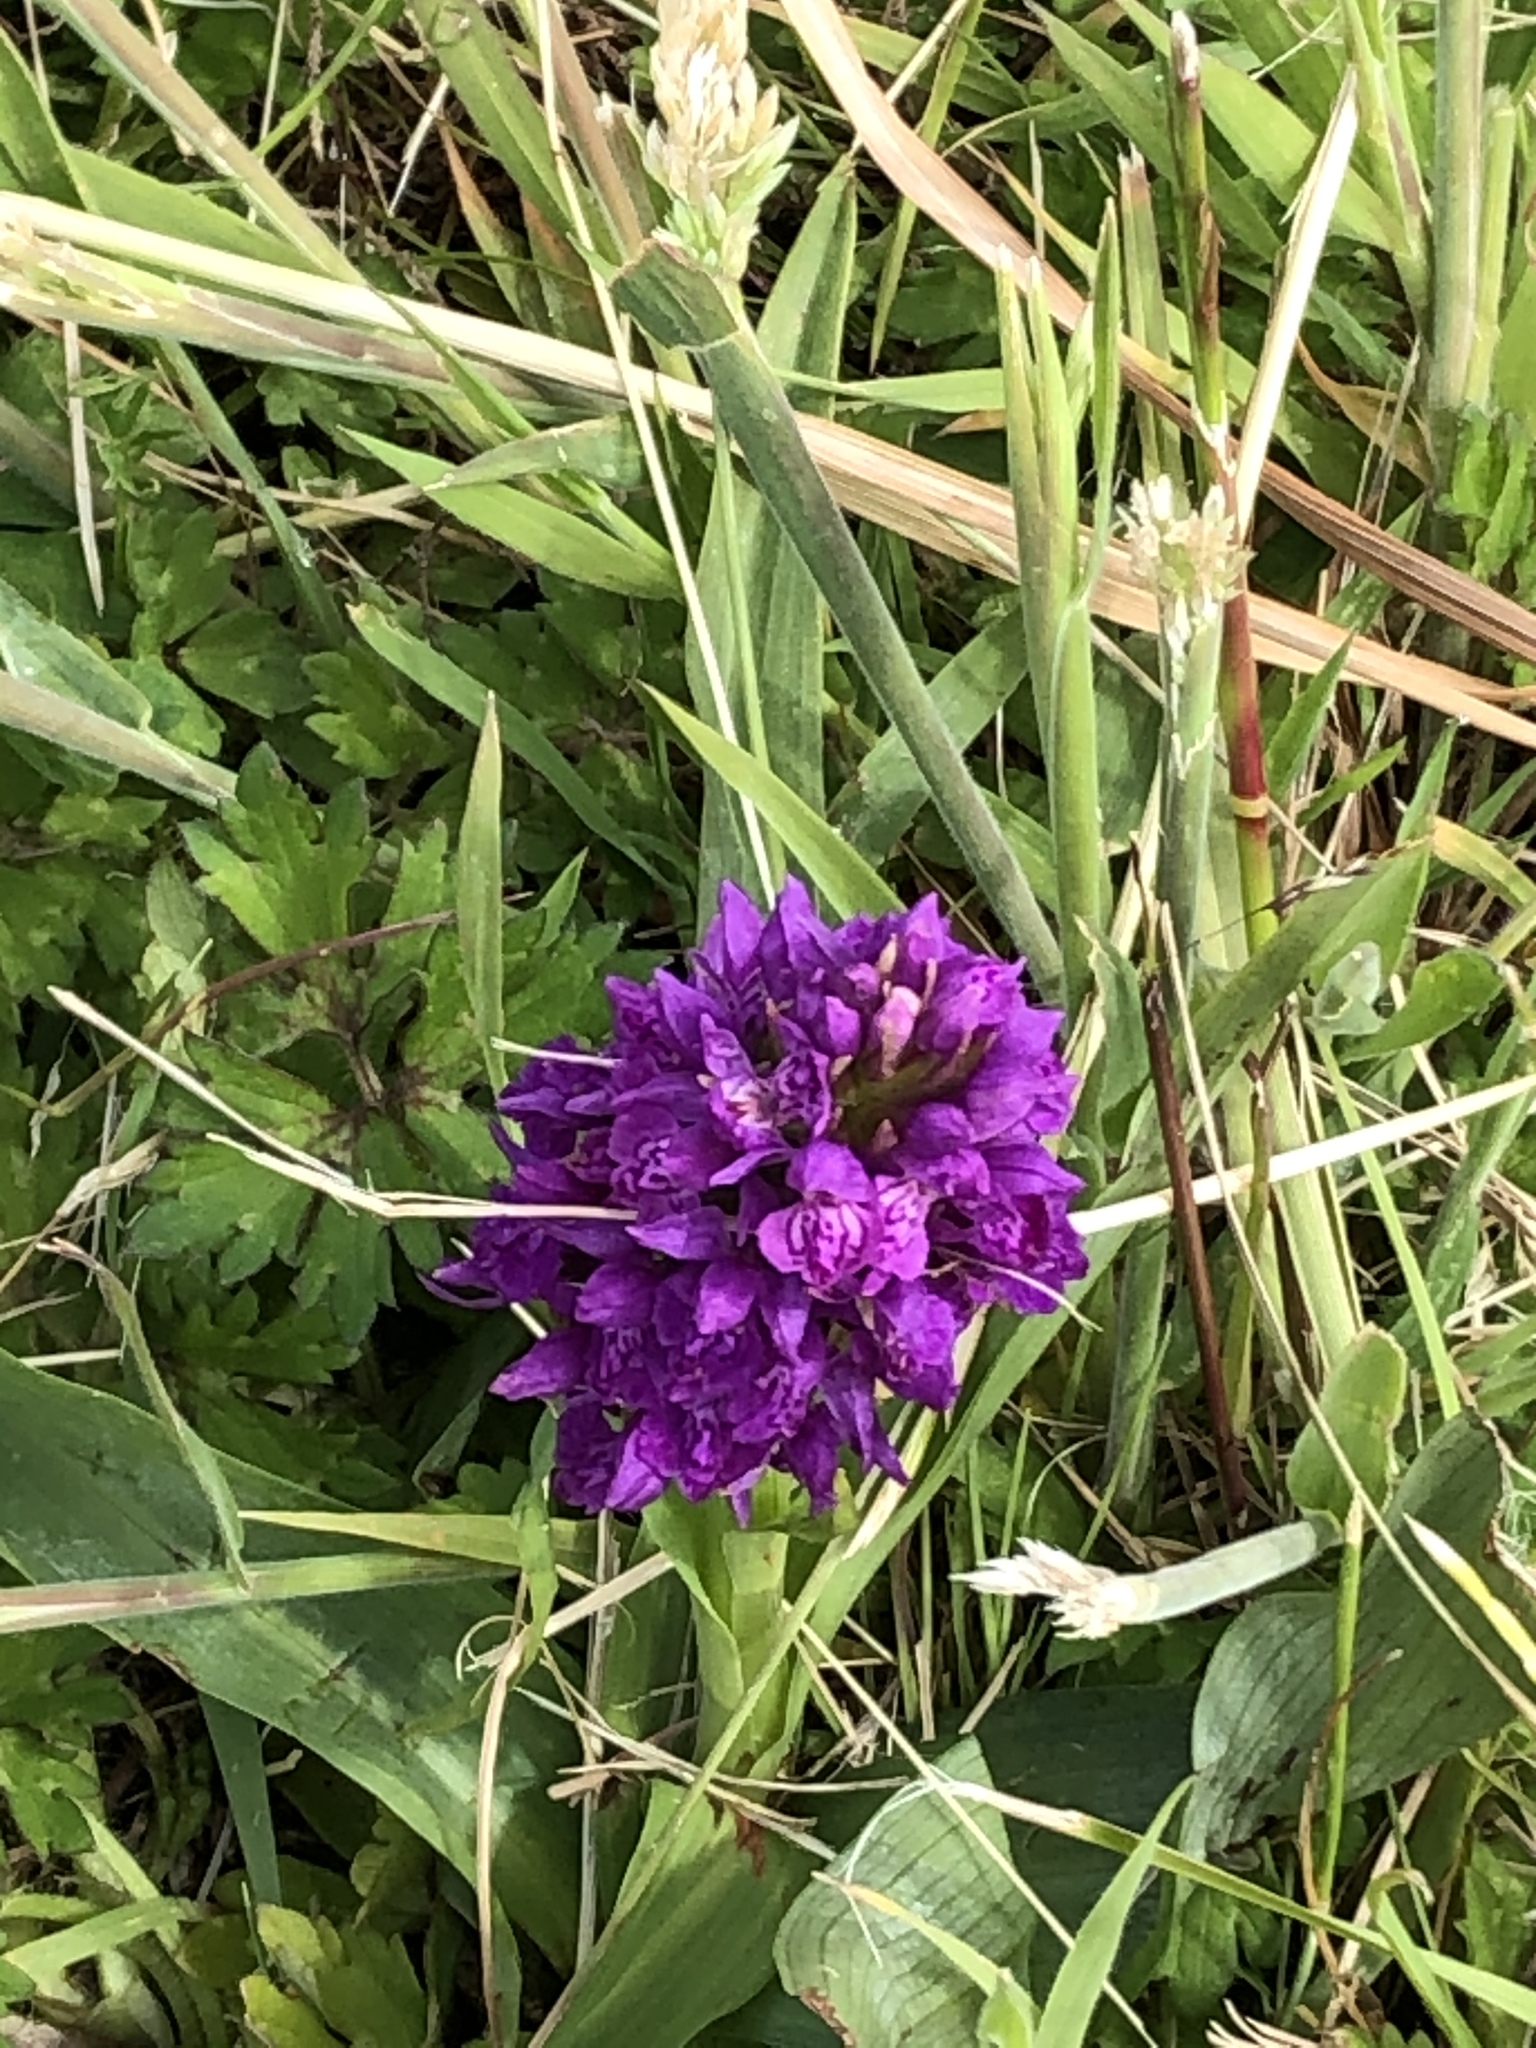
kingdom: Plantae
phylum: Tracheophyta
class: Liliopsida
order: Asparagales
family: Orchidaceae
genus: Dactylorhiza
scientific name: Dactylorhiza majalis
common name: Marsh orchid
